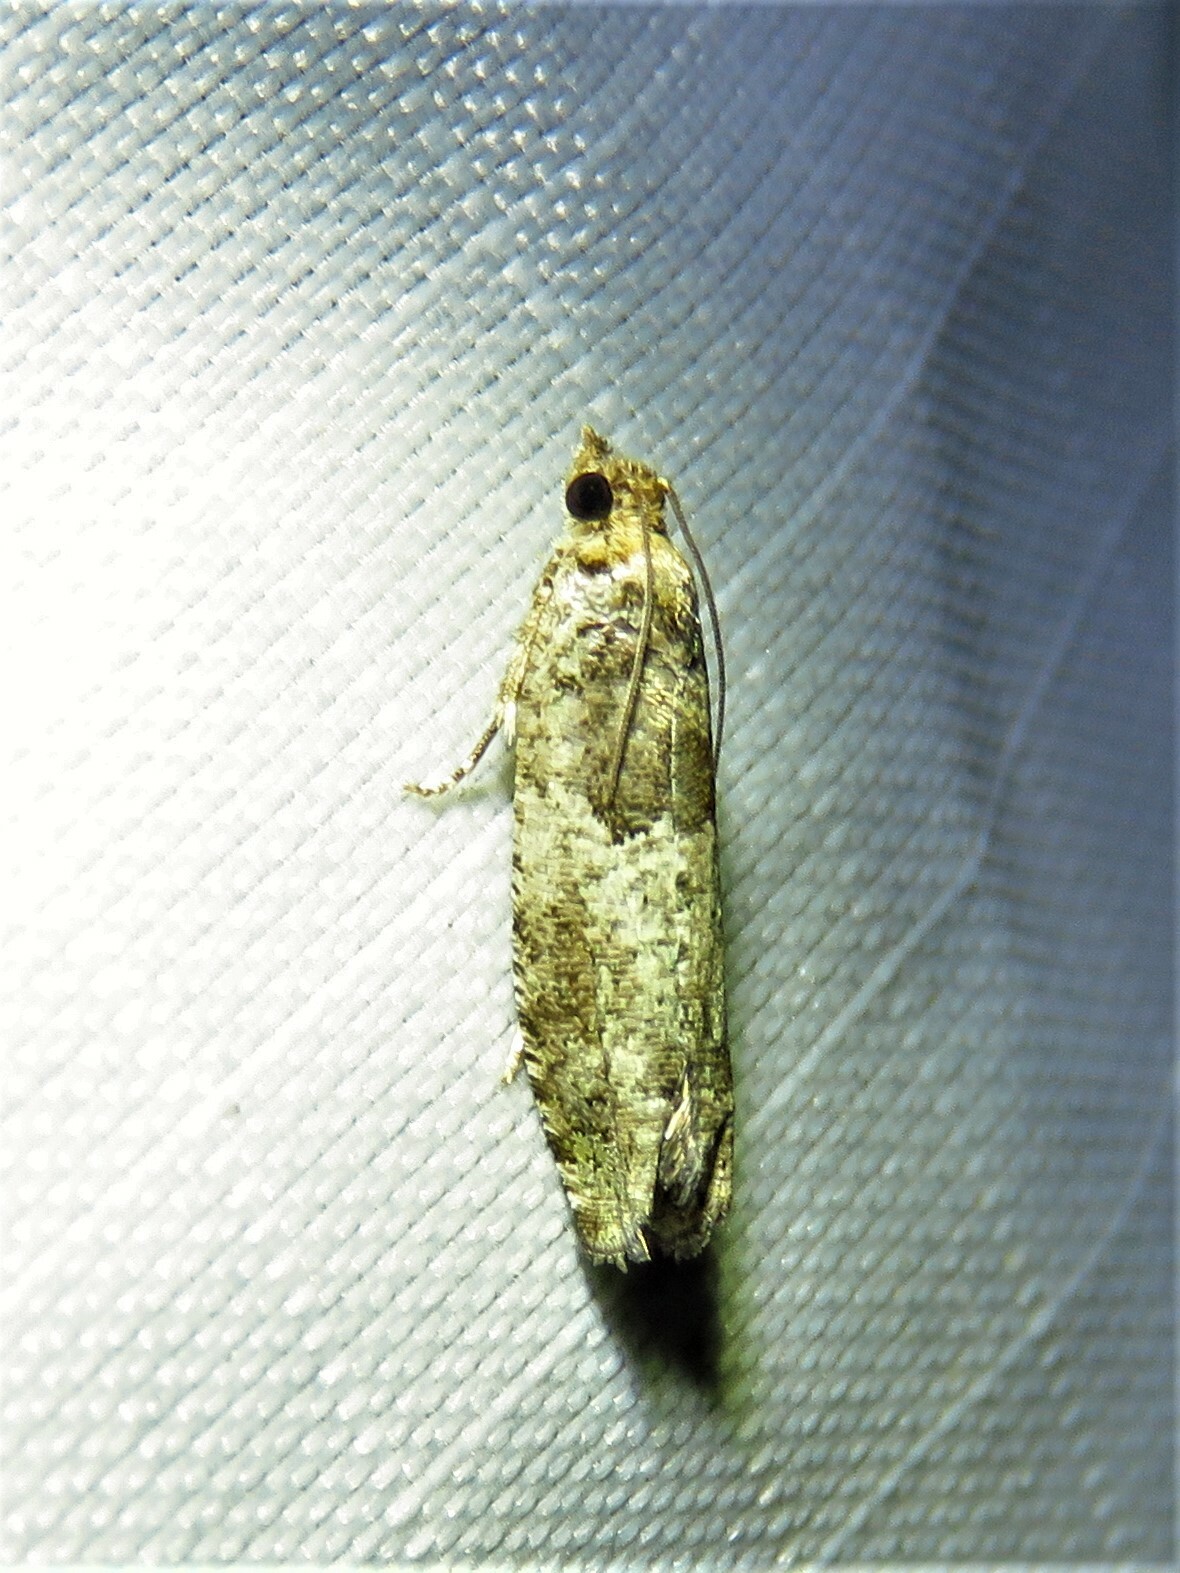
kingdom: Animalia
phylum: Arthropoda
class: Insecta
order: Lepidoptera
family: Tortricidae
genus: Pseudexentera
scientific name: Pseudexentera knudsoni
